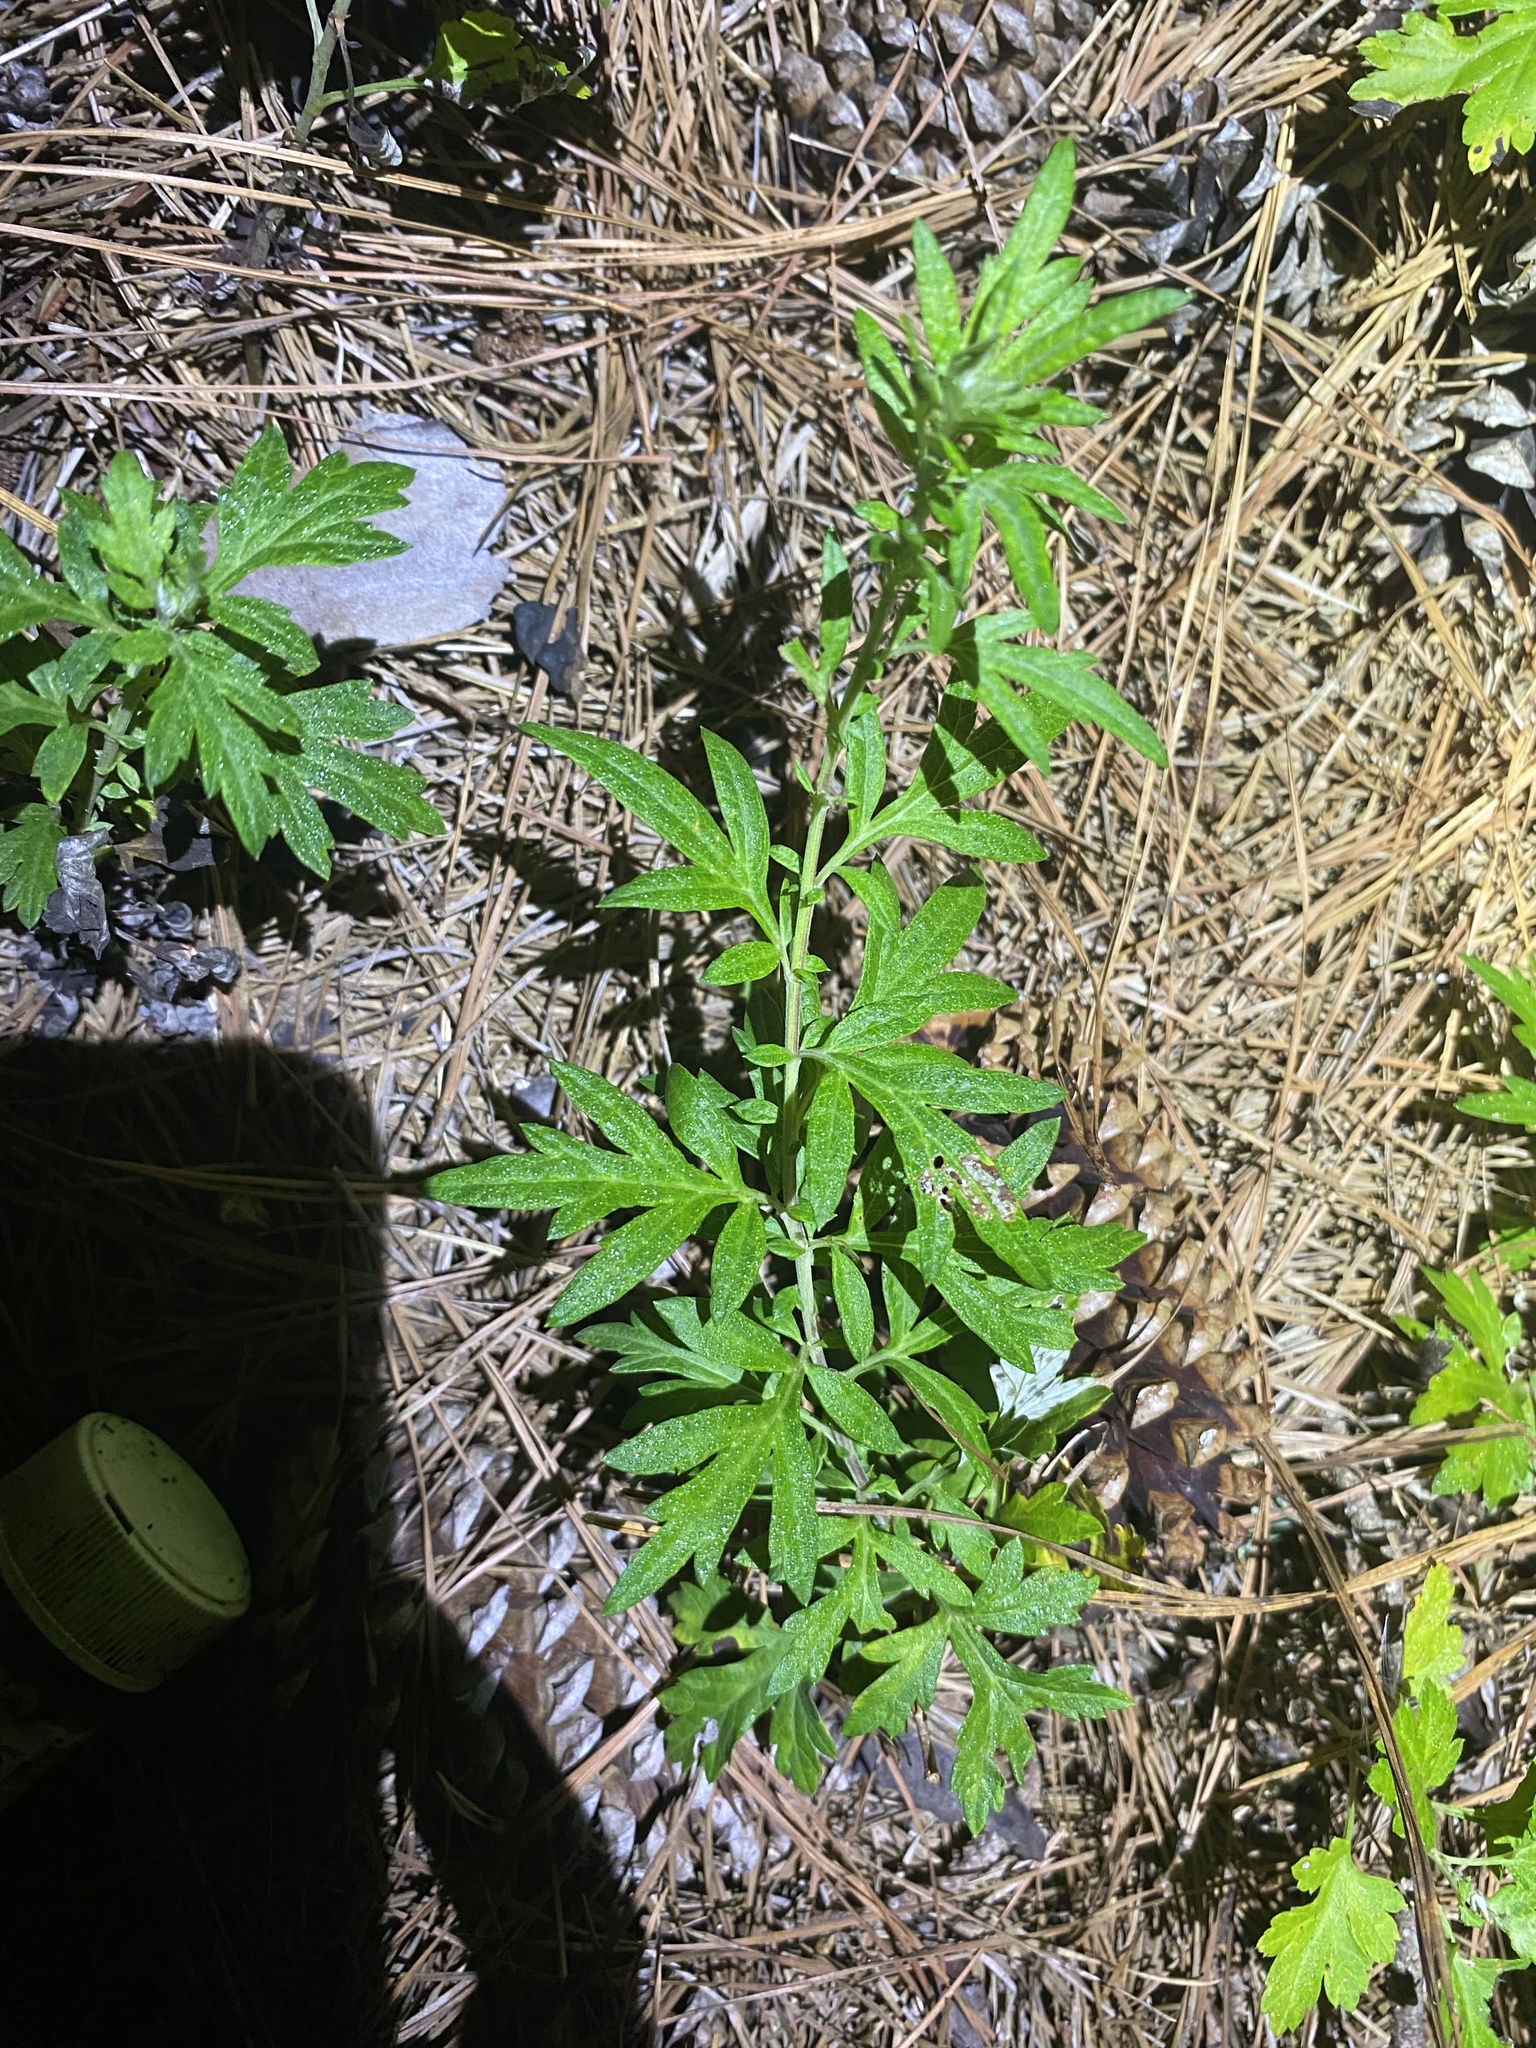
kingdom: Plantae
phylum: Tracheophyta
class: Magnoliopsida
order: Asterales
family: Asteraceae
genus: Artemisia
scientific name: Artemisia vulgaris
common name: Mugwort
